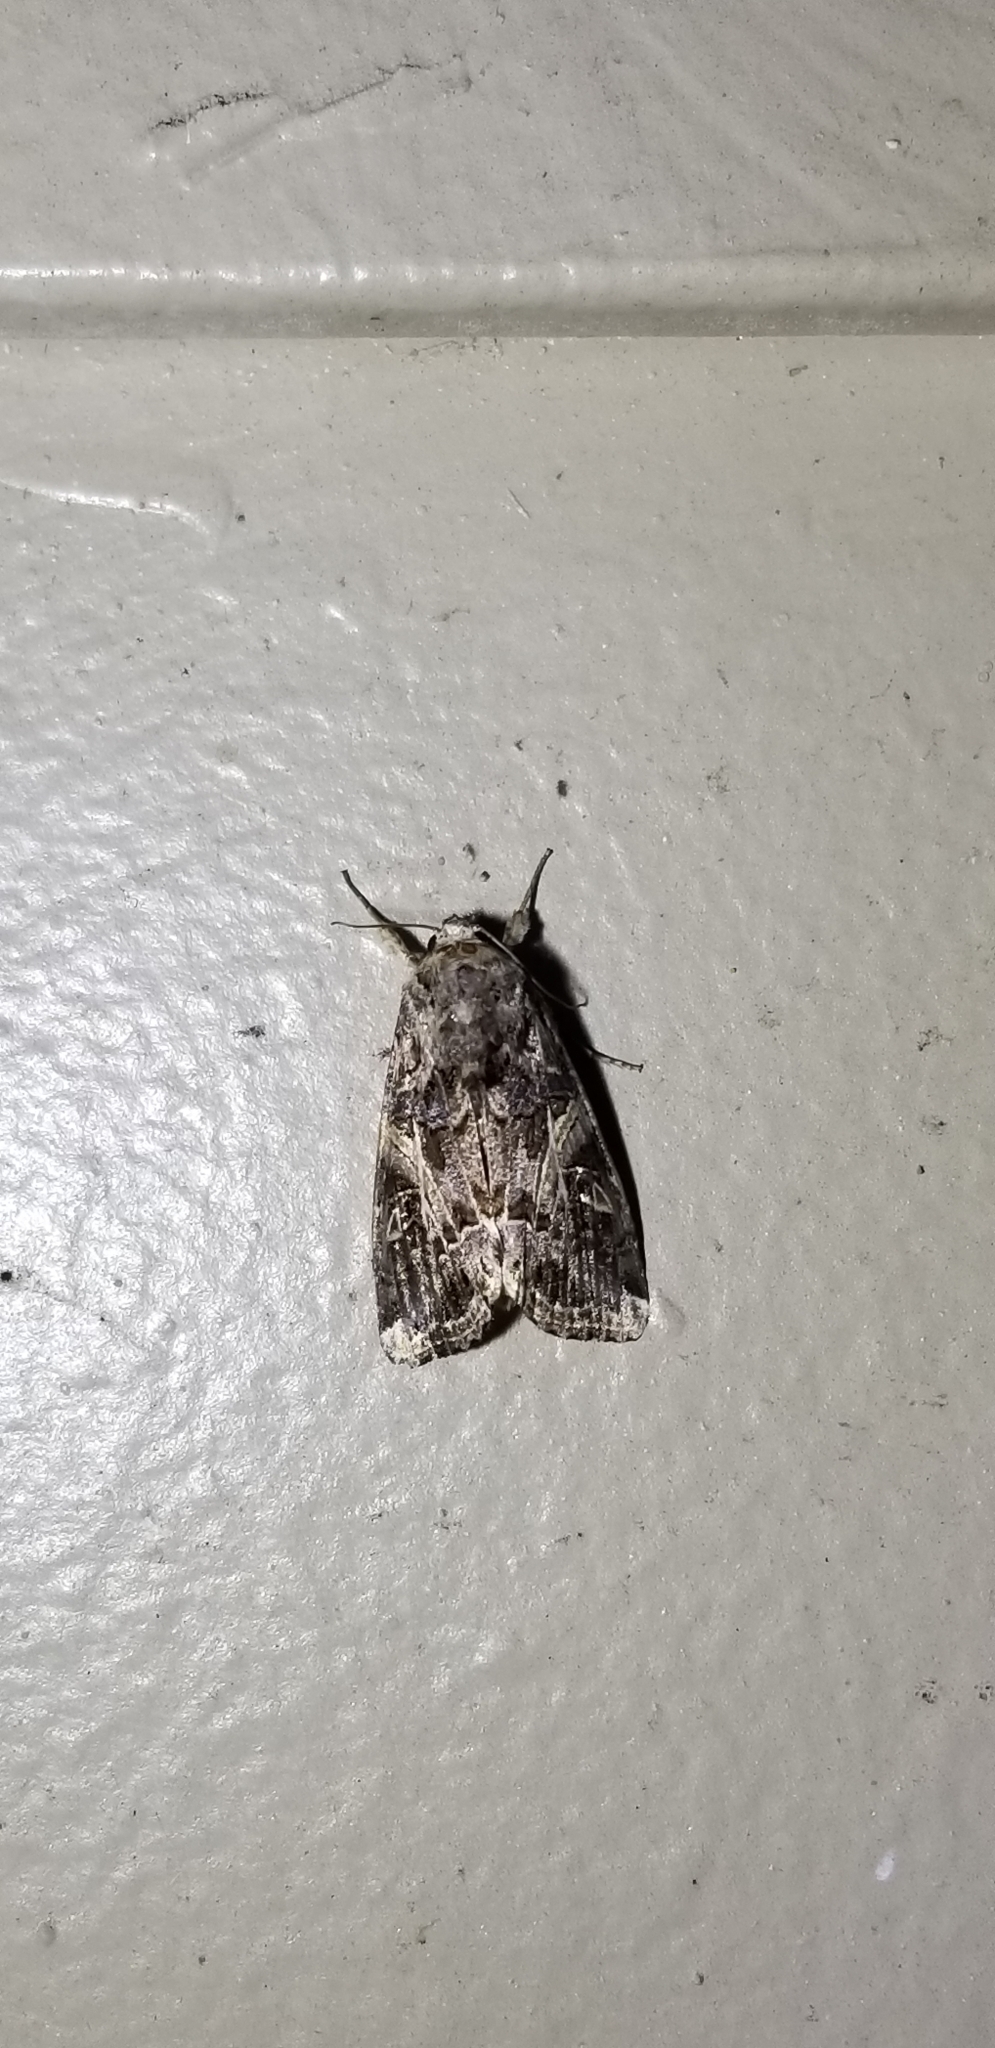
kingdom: Animalia
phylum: Arthropoda
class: Insecta
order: Lepidoptera
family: Noctuidae
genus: Spodoptera
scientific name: Spodoptera ornithogalli
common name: Yellow-striped armyworm
